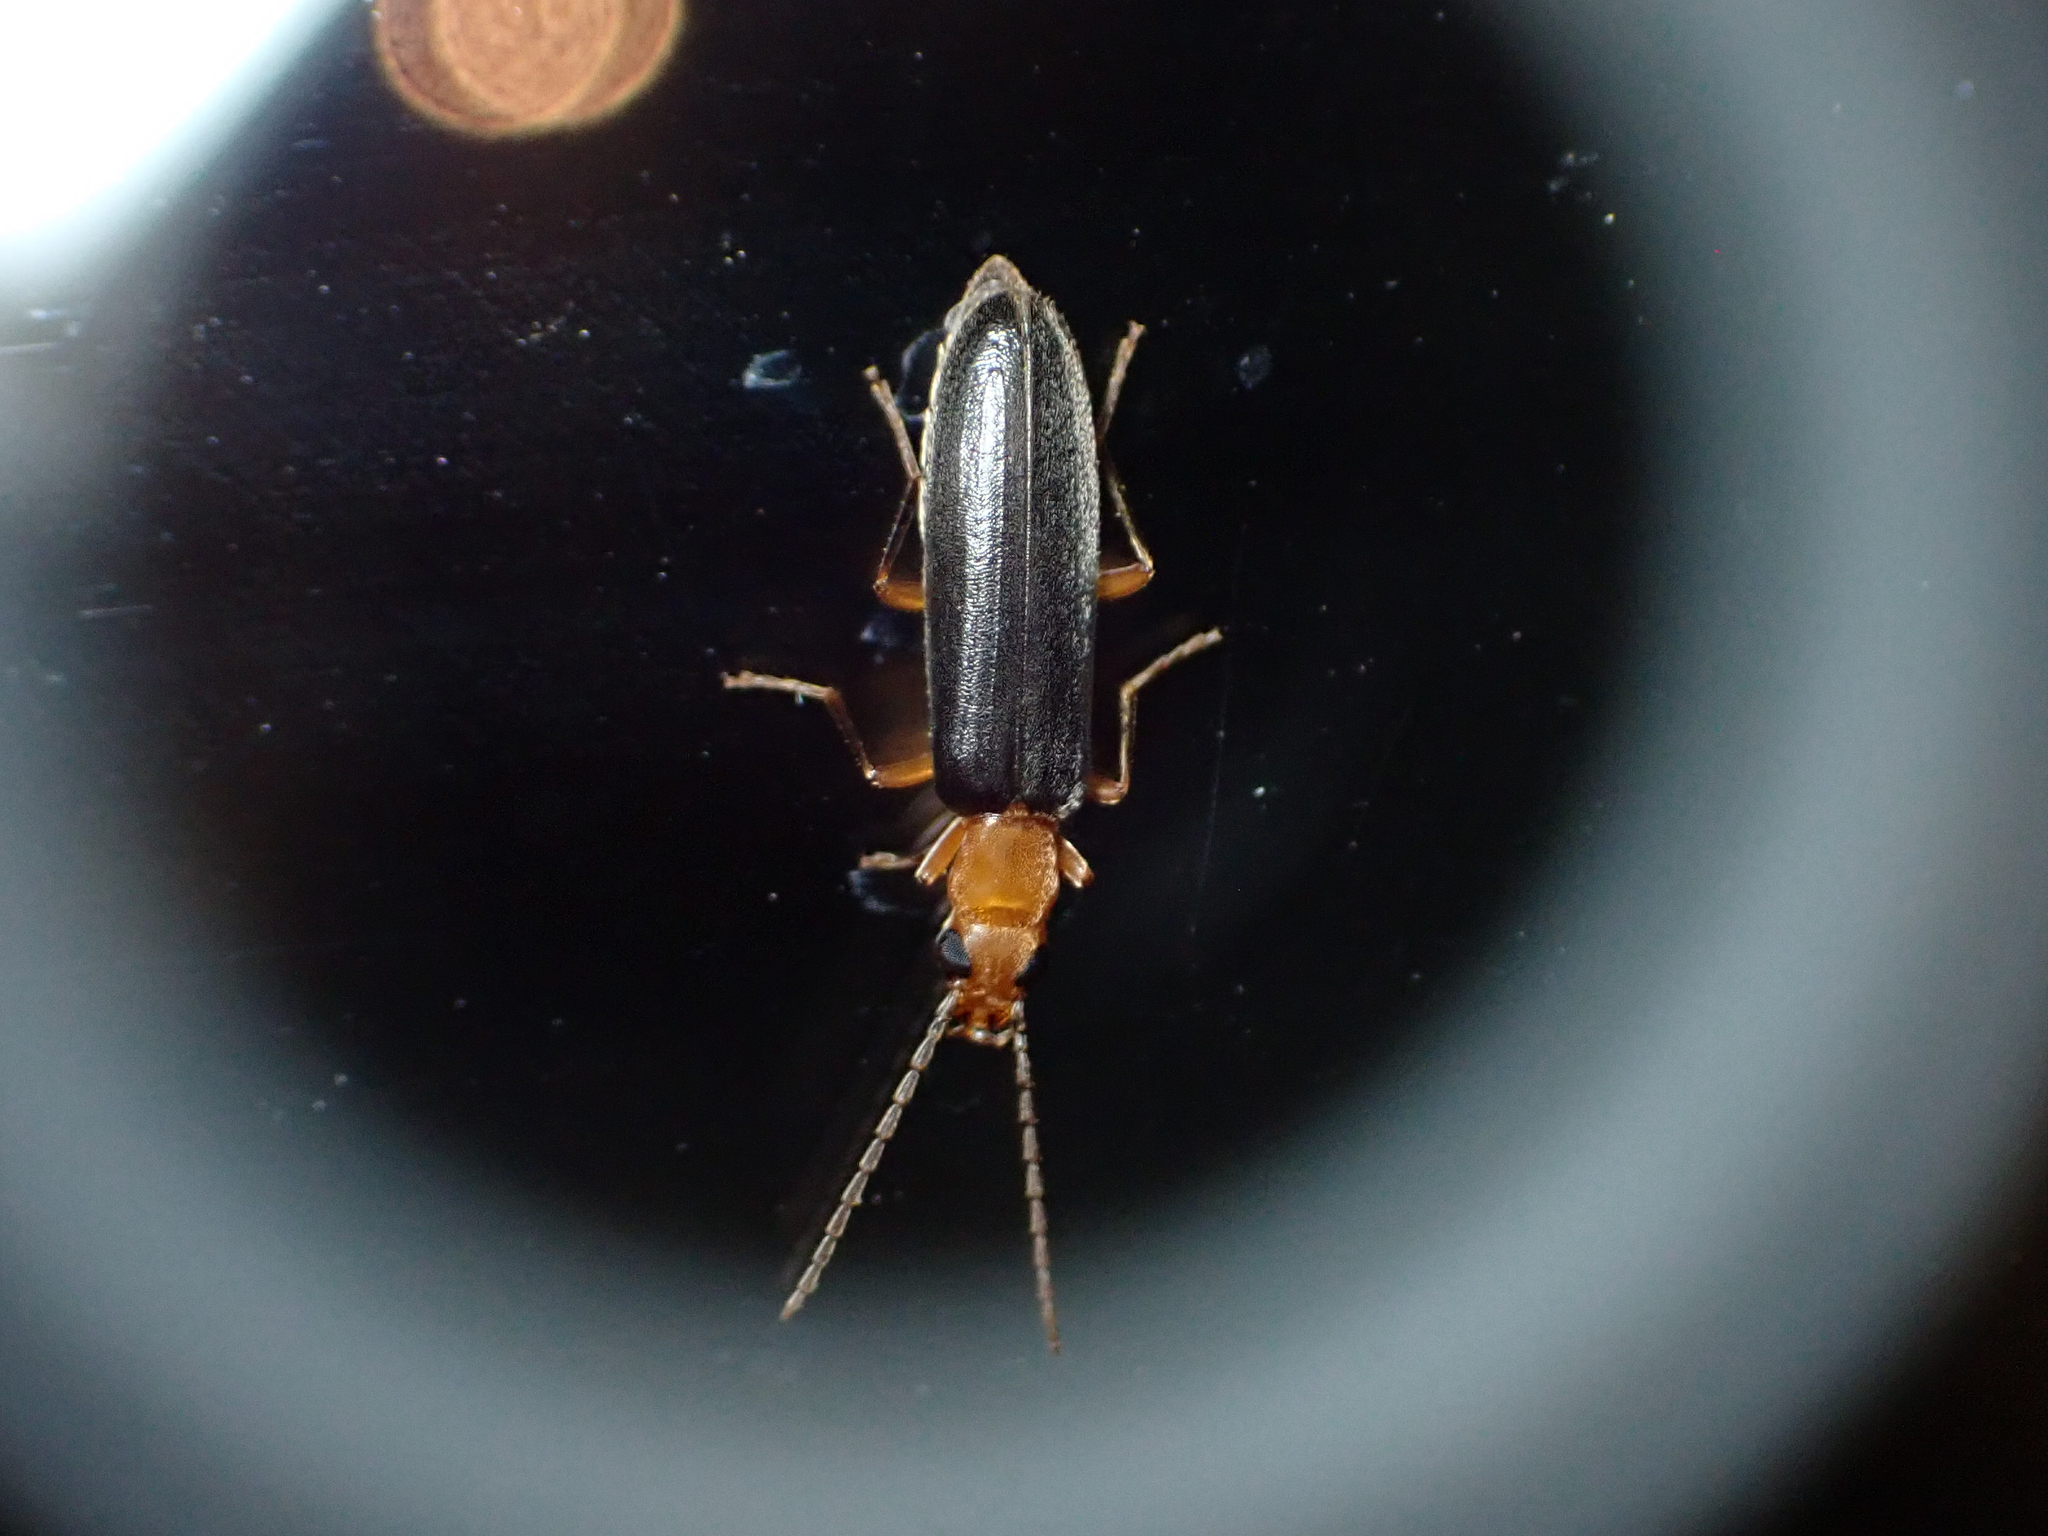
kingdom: Animalia
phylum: Arthropoda
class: Insecta
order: Coleoptera
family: Oedemeridae
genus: Xanthochroina
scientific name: Xanthochroina bicolor
